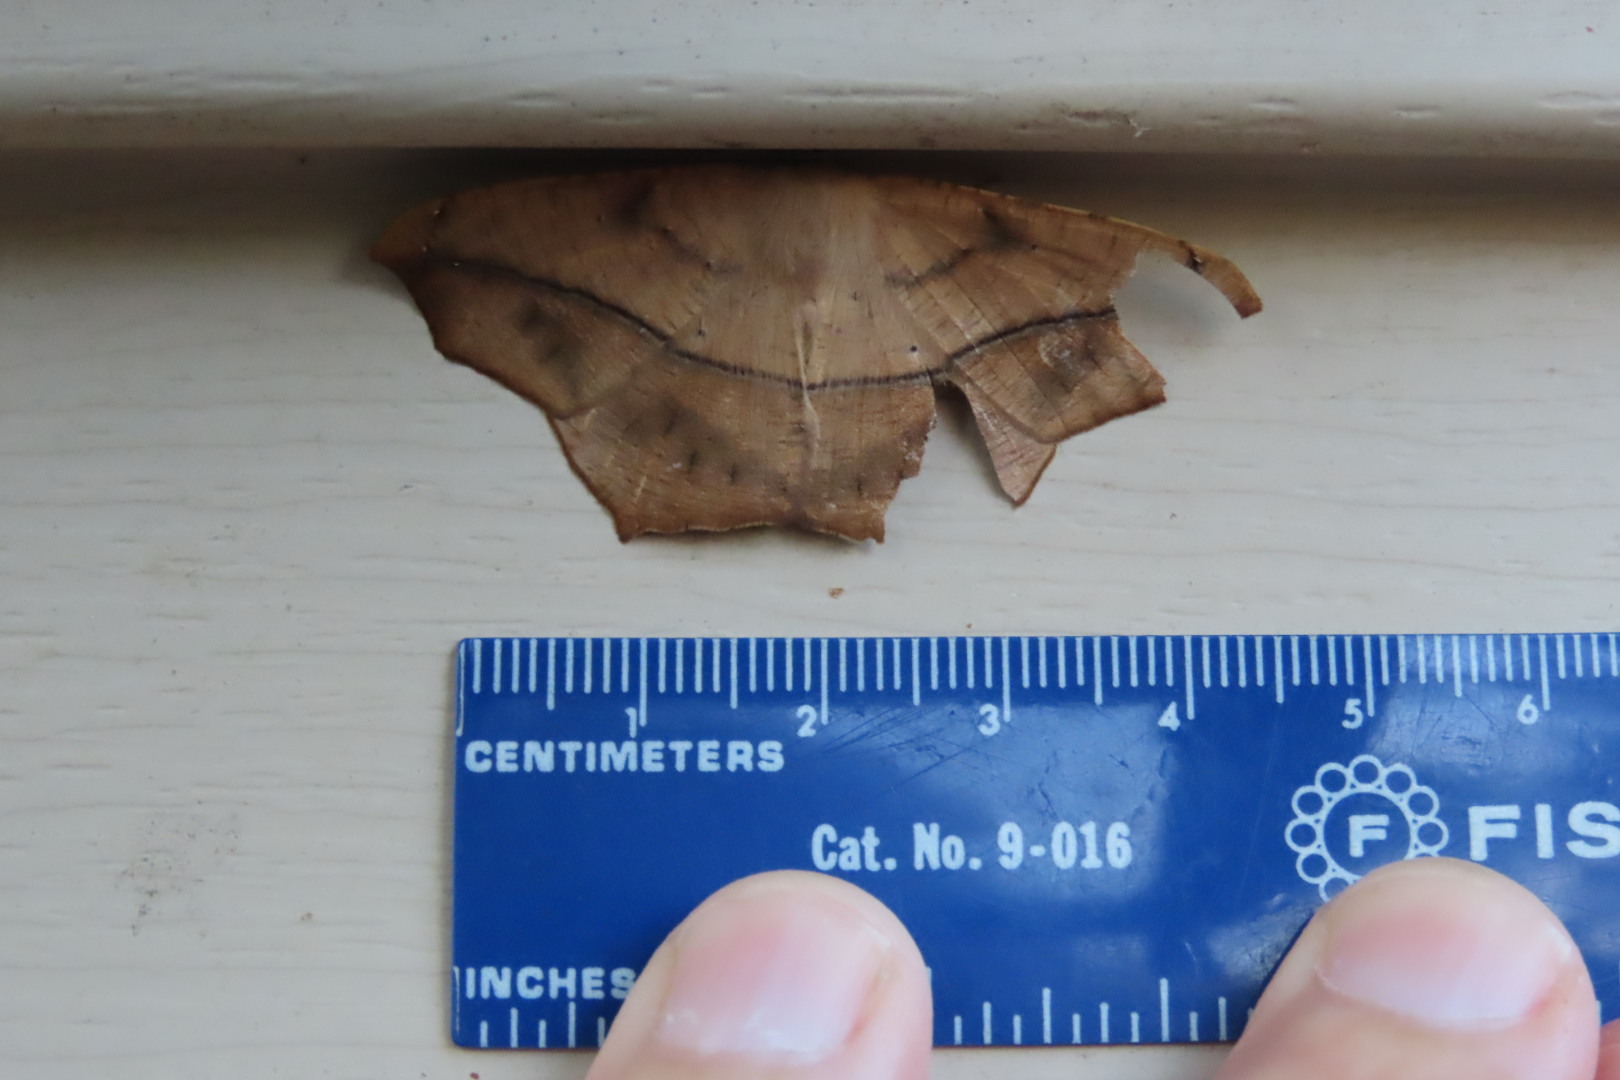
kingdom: Animalia
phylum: Arthropoda
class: Insecta
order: Lepidoptera
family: Geometridae
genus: Prochoerodes
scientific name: Prochoerodes lineola
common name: Large maple spanworm
